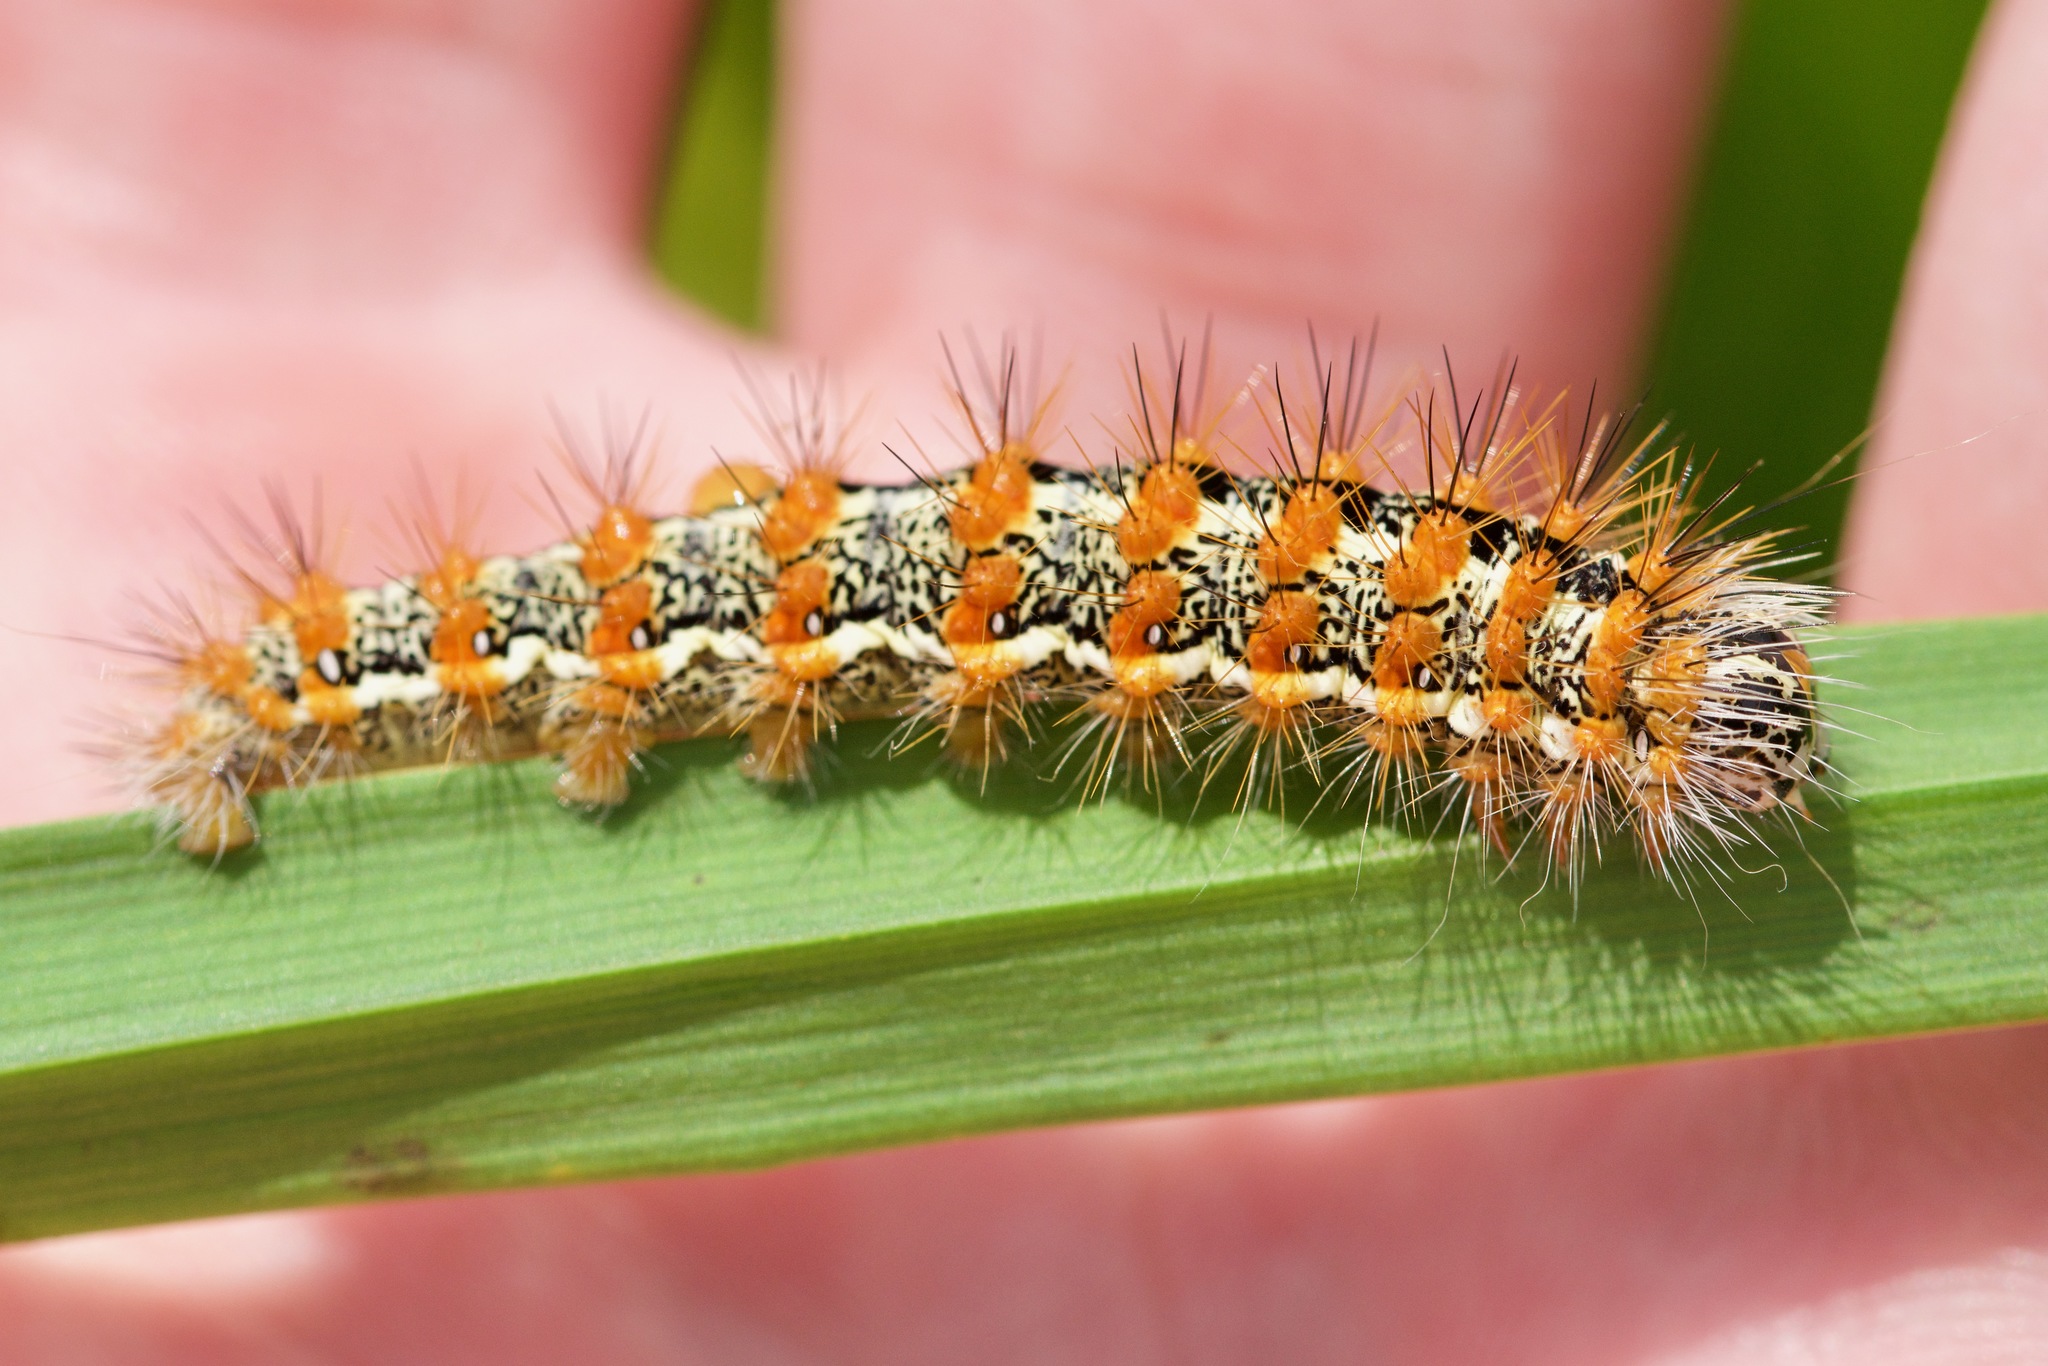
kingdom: Animalia
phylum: Arthropoda
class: Insecta
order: Lepidoptera
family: Noctuidae
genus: Acronicta
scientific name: Acronicta insularis
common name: Henry's marsh moth
